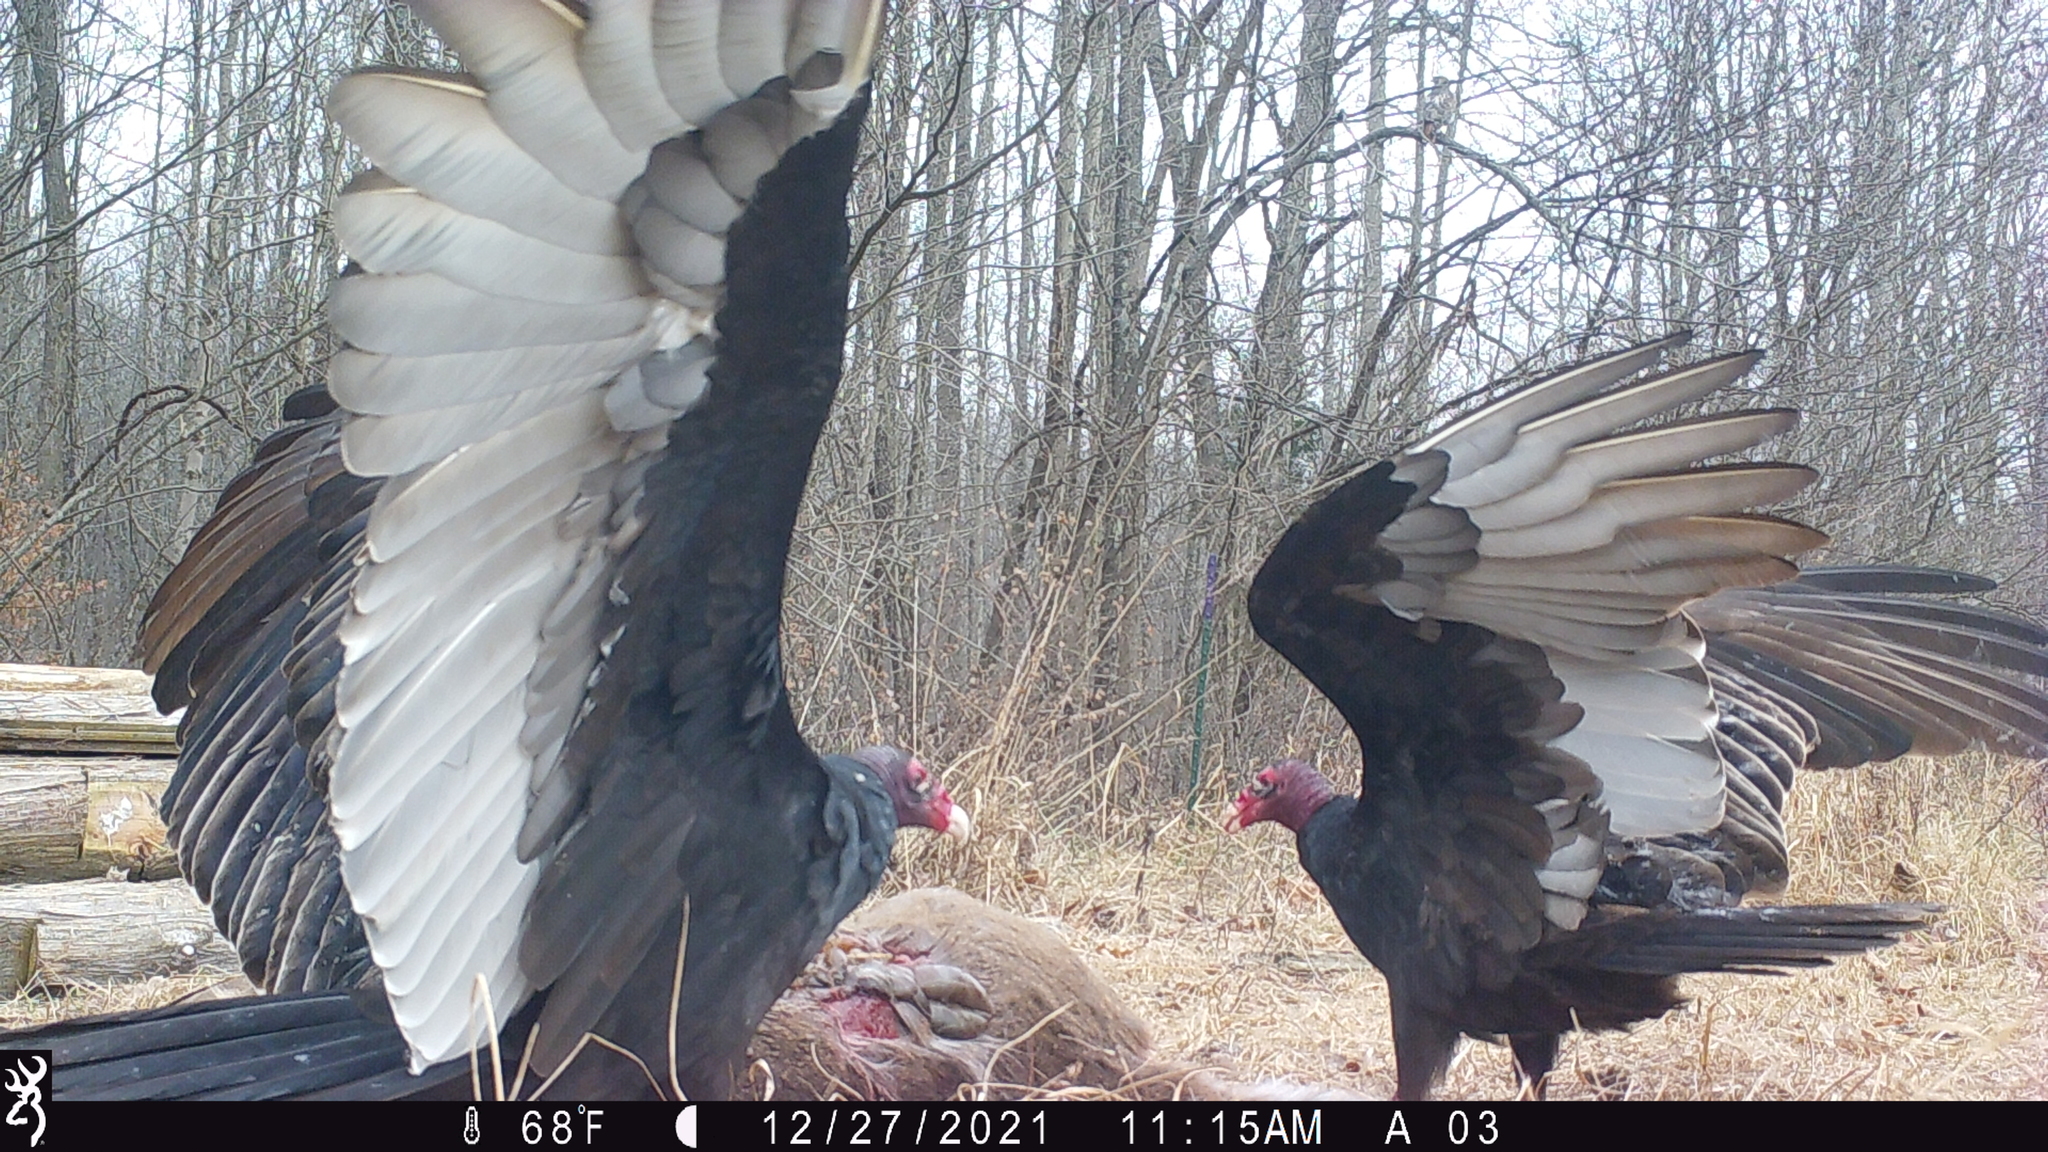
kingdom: Animalia
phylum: Chordata
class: Aves
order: Accipitriformes
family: Cathartidae
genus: Cathartes
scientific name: Cathartes aura
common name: Turkey vulture
